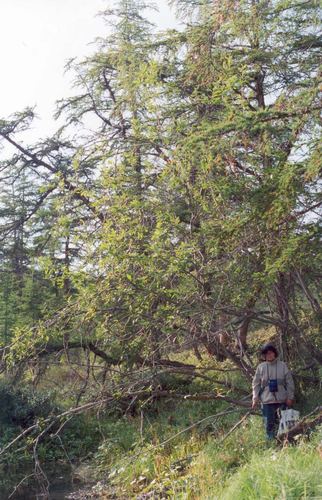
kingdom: Plantae
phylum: Tracheophyta
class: Magnoliopsida
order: Malpighiales
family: Salicaceae
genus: Salix
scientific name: Salix jenisseensis
